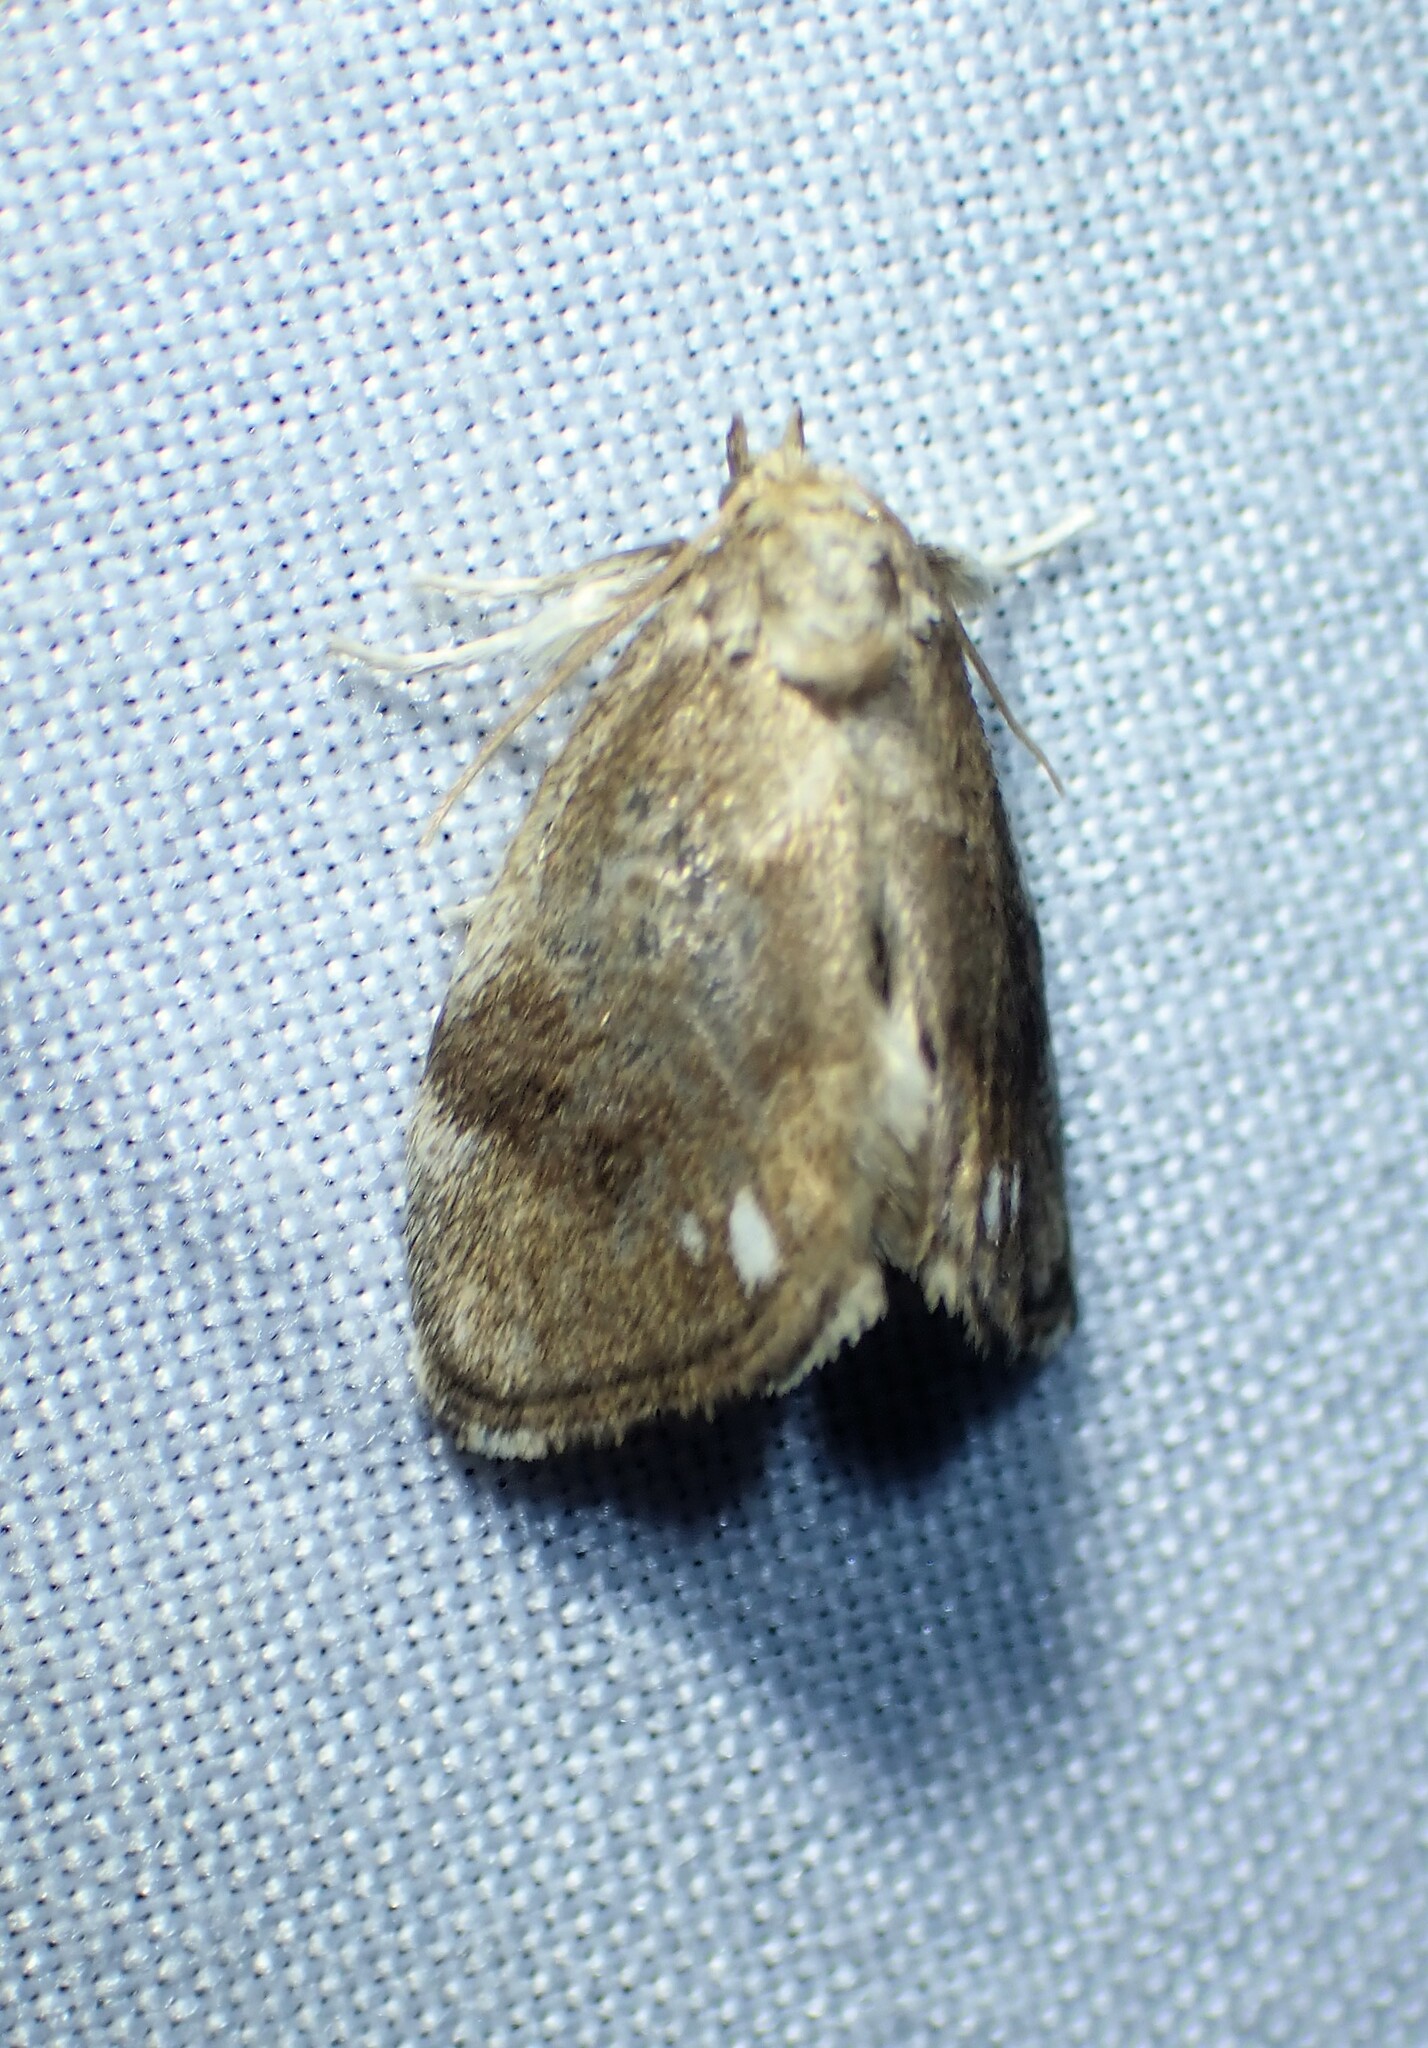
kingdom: Animalia
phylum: Arthropoda
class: Insecta
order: Lepidoptera
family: Limacodidae
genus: Packardia
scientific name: Packardia geminata
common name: Jeweled tailed slug moth
